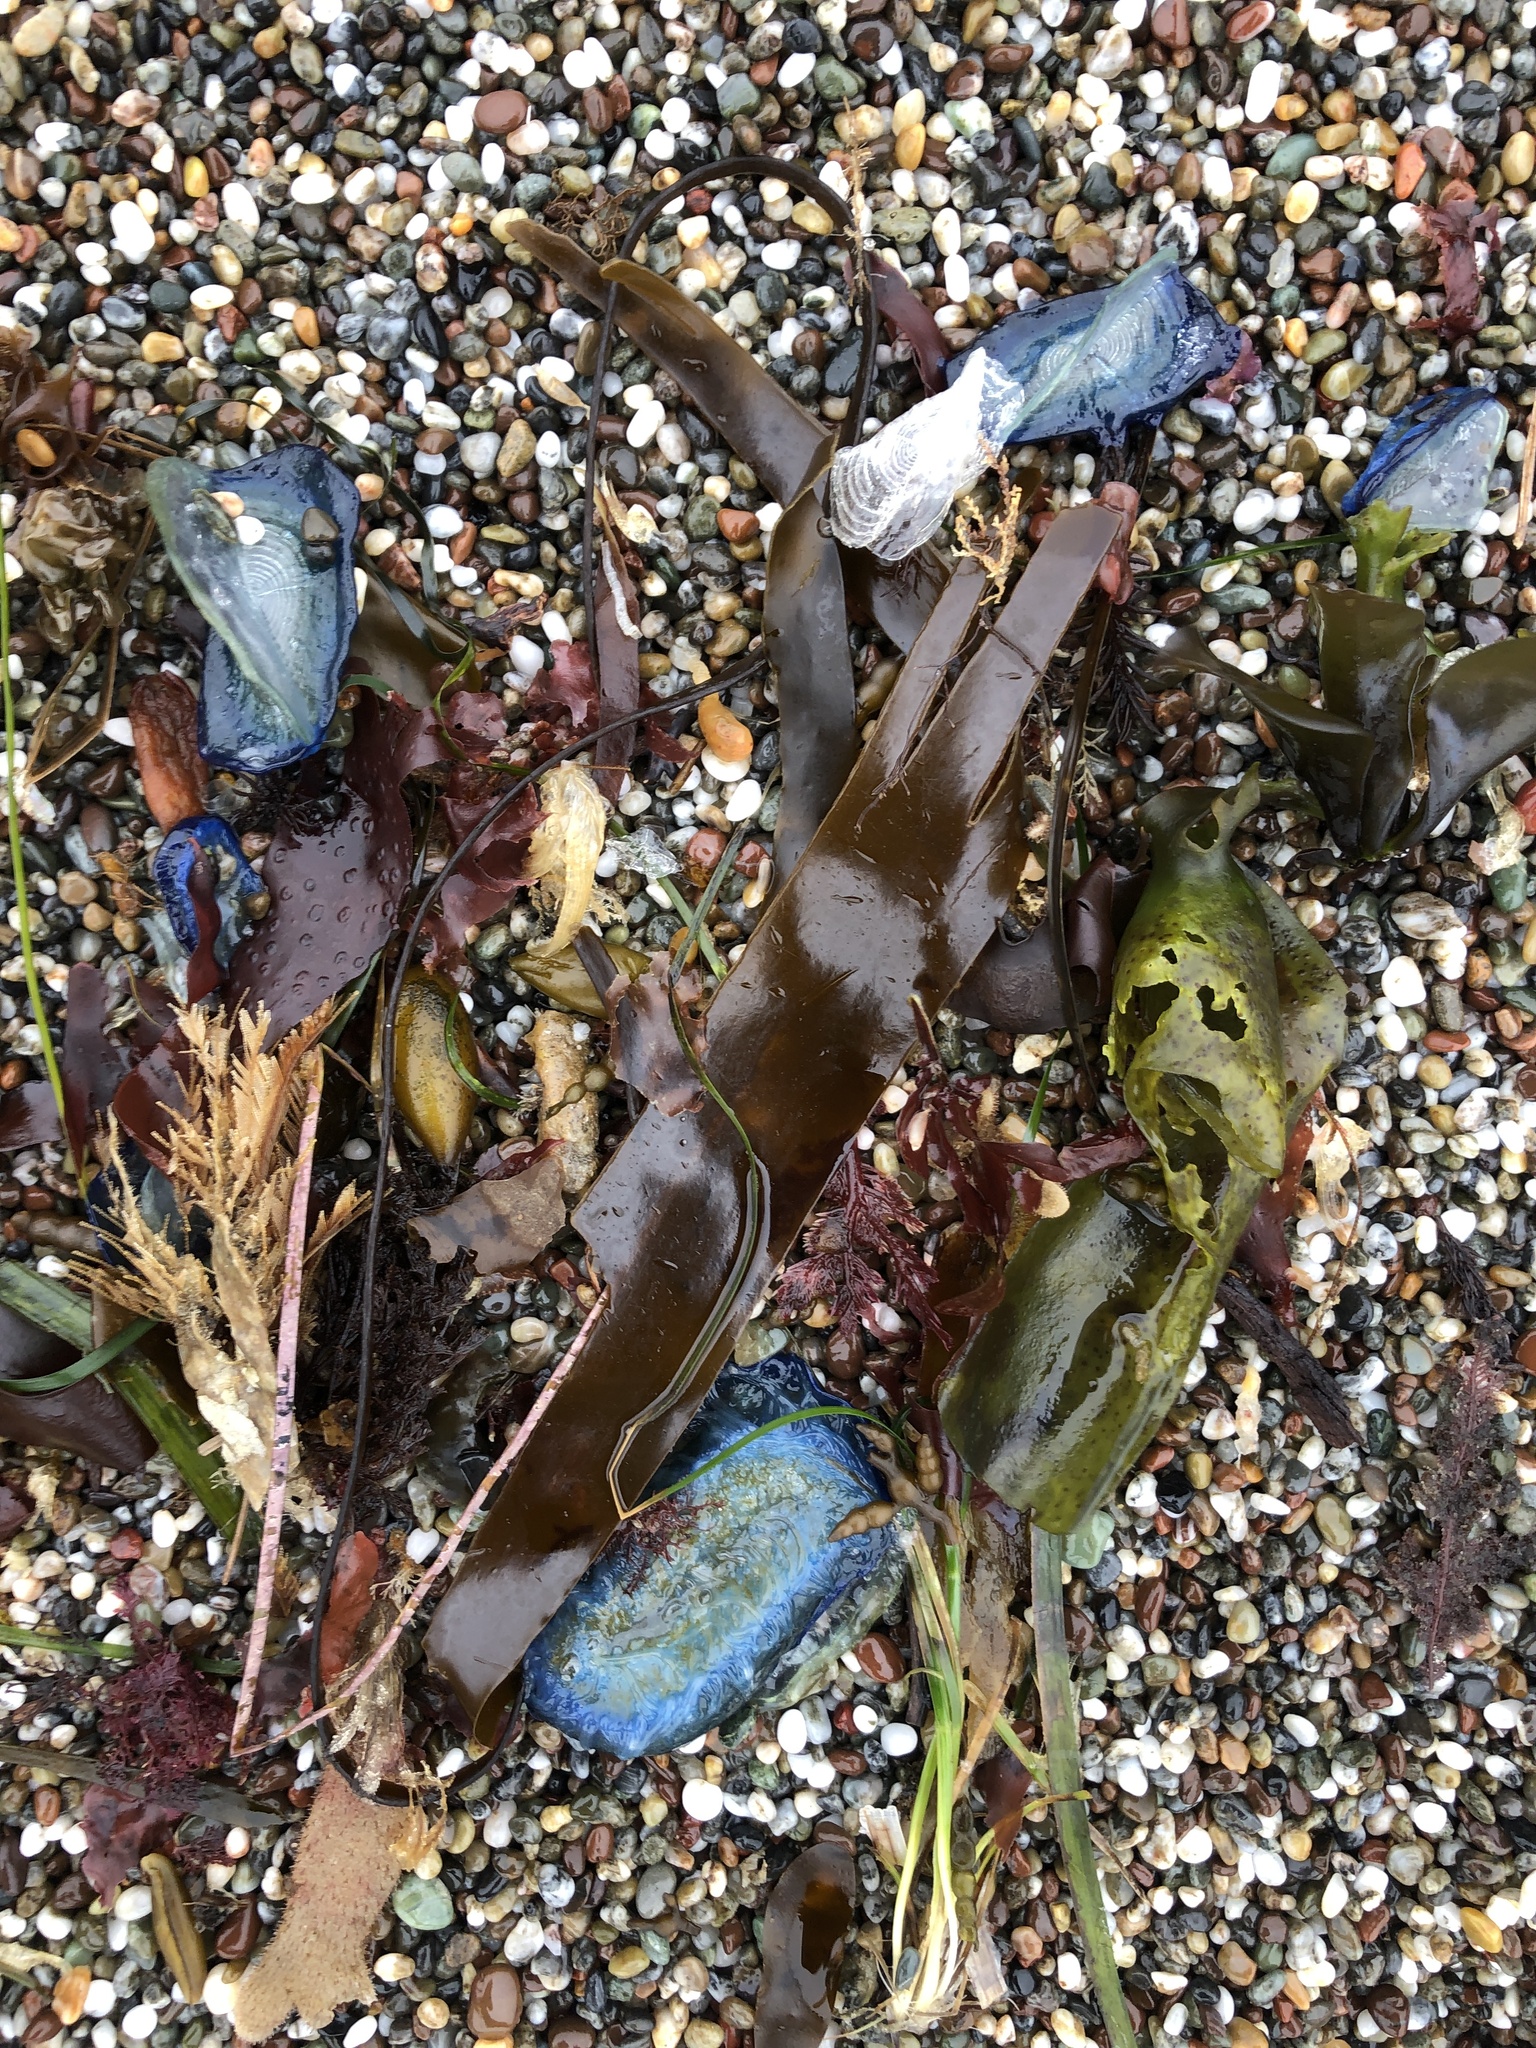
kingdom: Animalia
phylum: Cnidaria
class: Hydrozoa
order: Anthoathecata
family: Porpitidae
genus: Velella
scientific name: Velella velella
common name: By-the-wind-sailor
